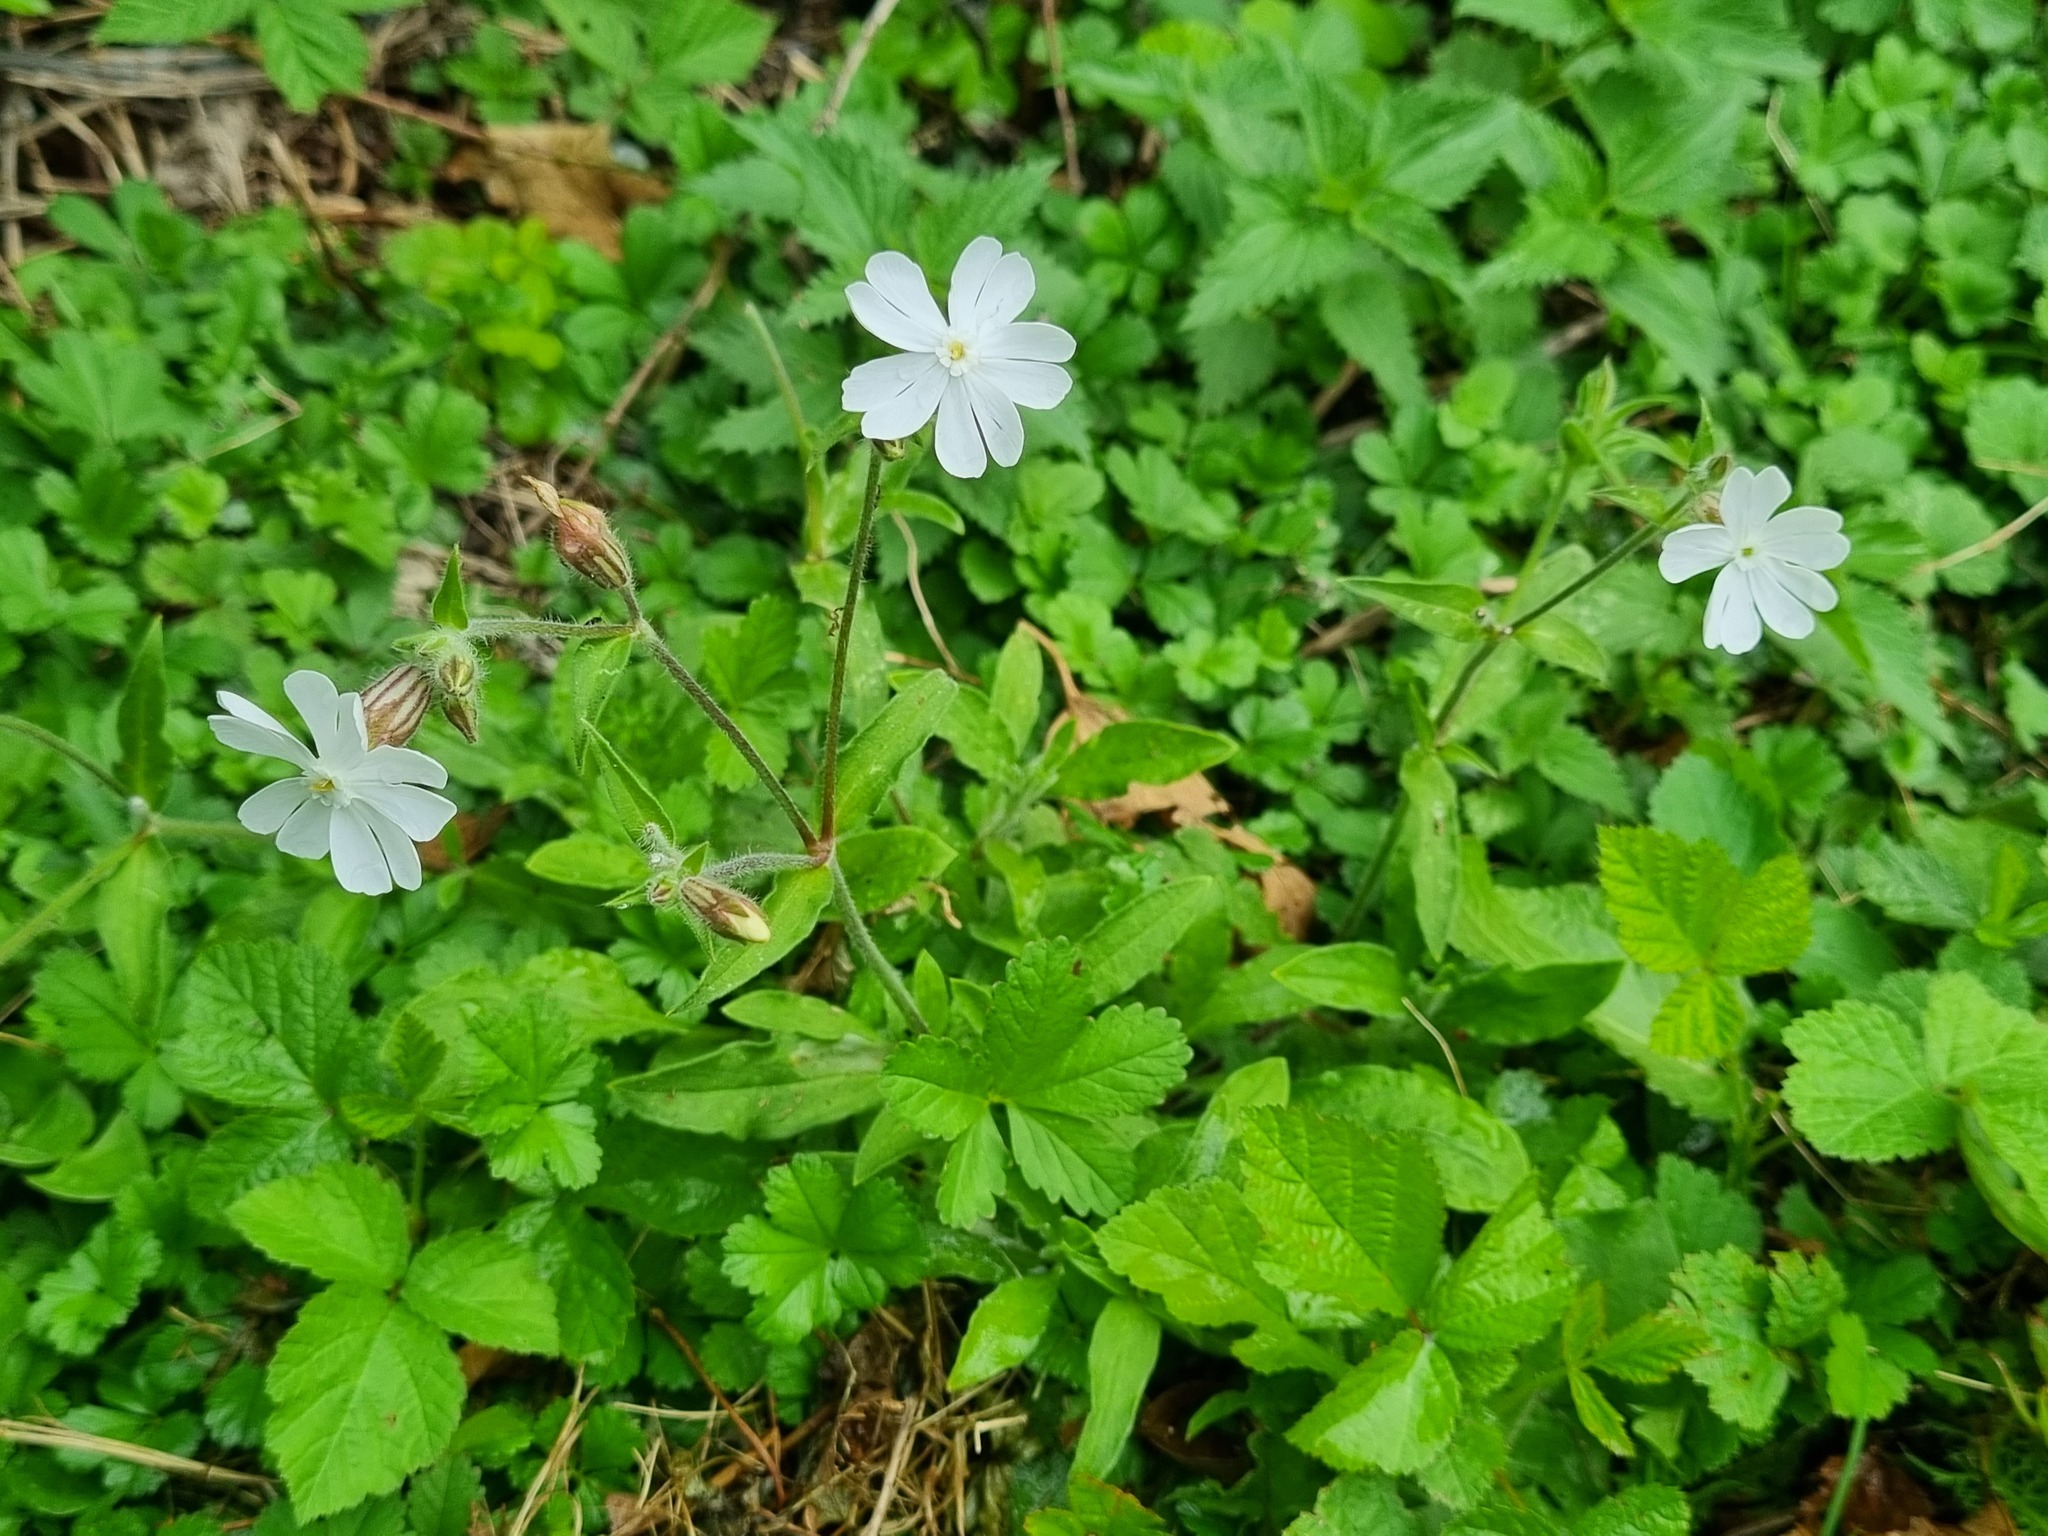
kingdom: Plantae
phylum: Tracheophyta
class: Magnoliopsida
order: Caryophyllales
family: Caryophyllaceae
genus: Silene
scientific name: Silene latifolia
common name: White campion
